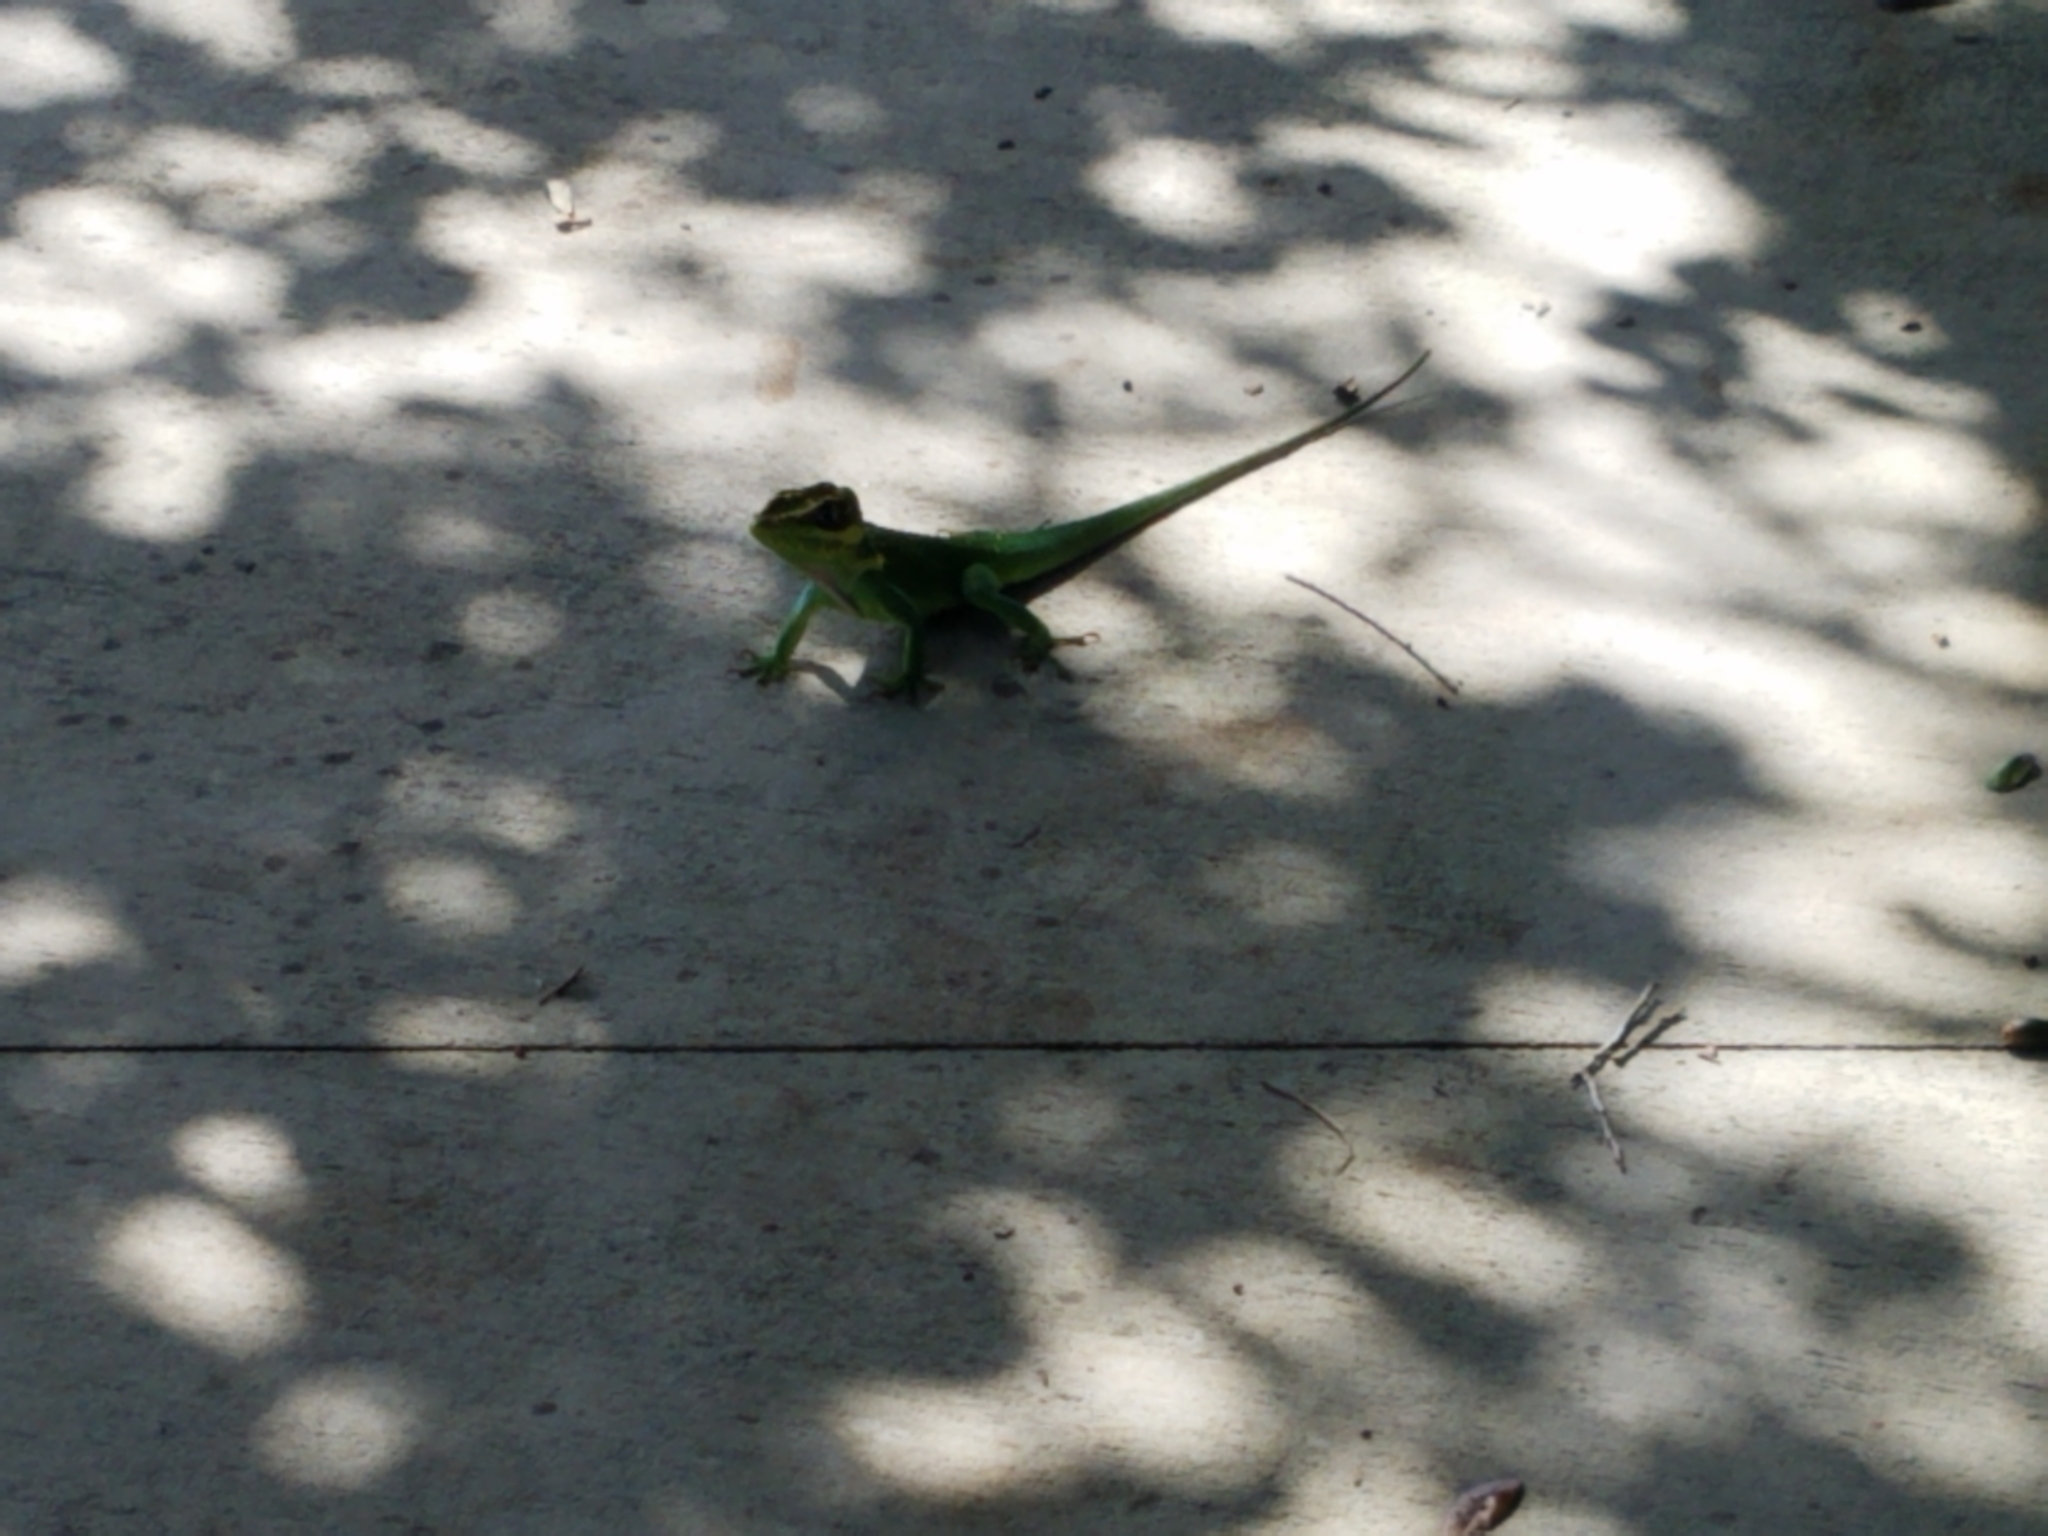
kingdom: Animalia
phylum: Chordata
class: Squamata
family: Dactyloidae
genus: Anolis
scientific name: Anolis equestris
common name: Knight anole
